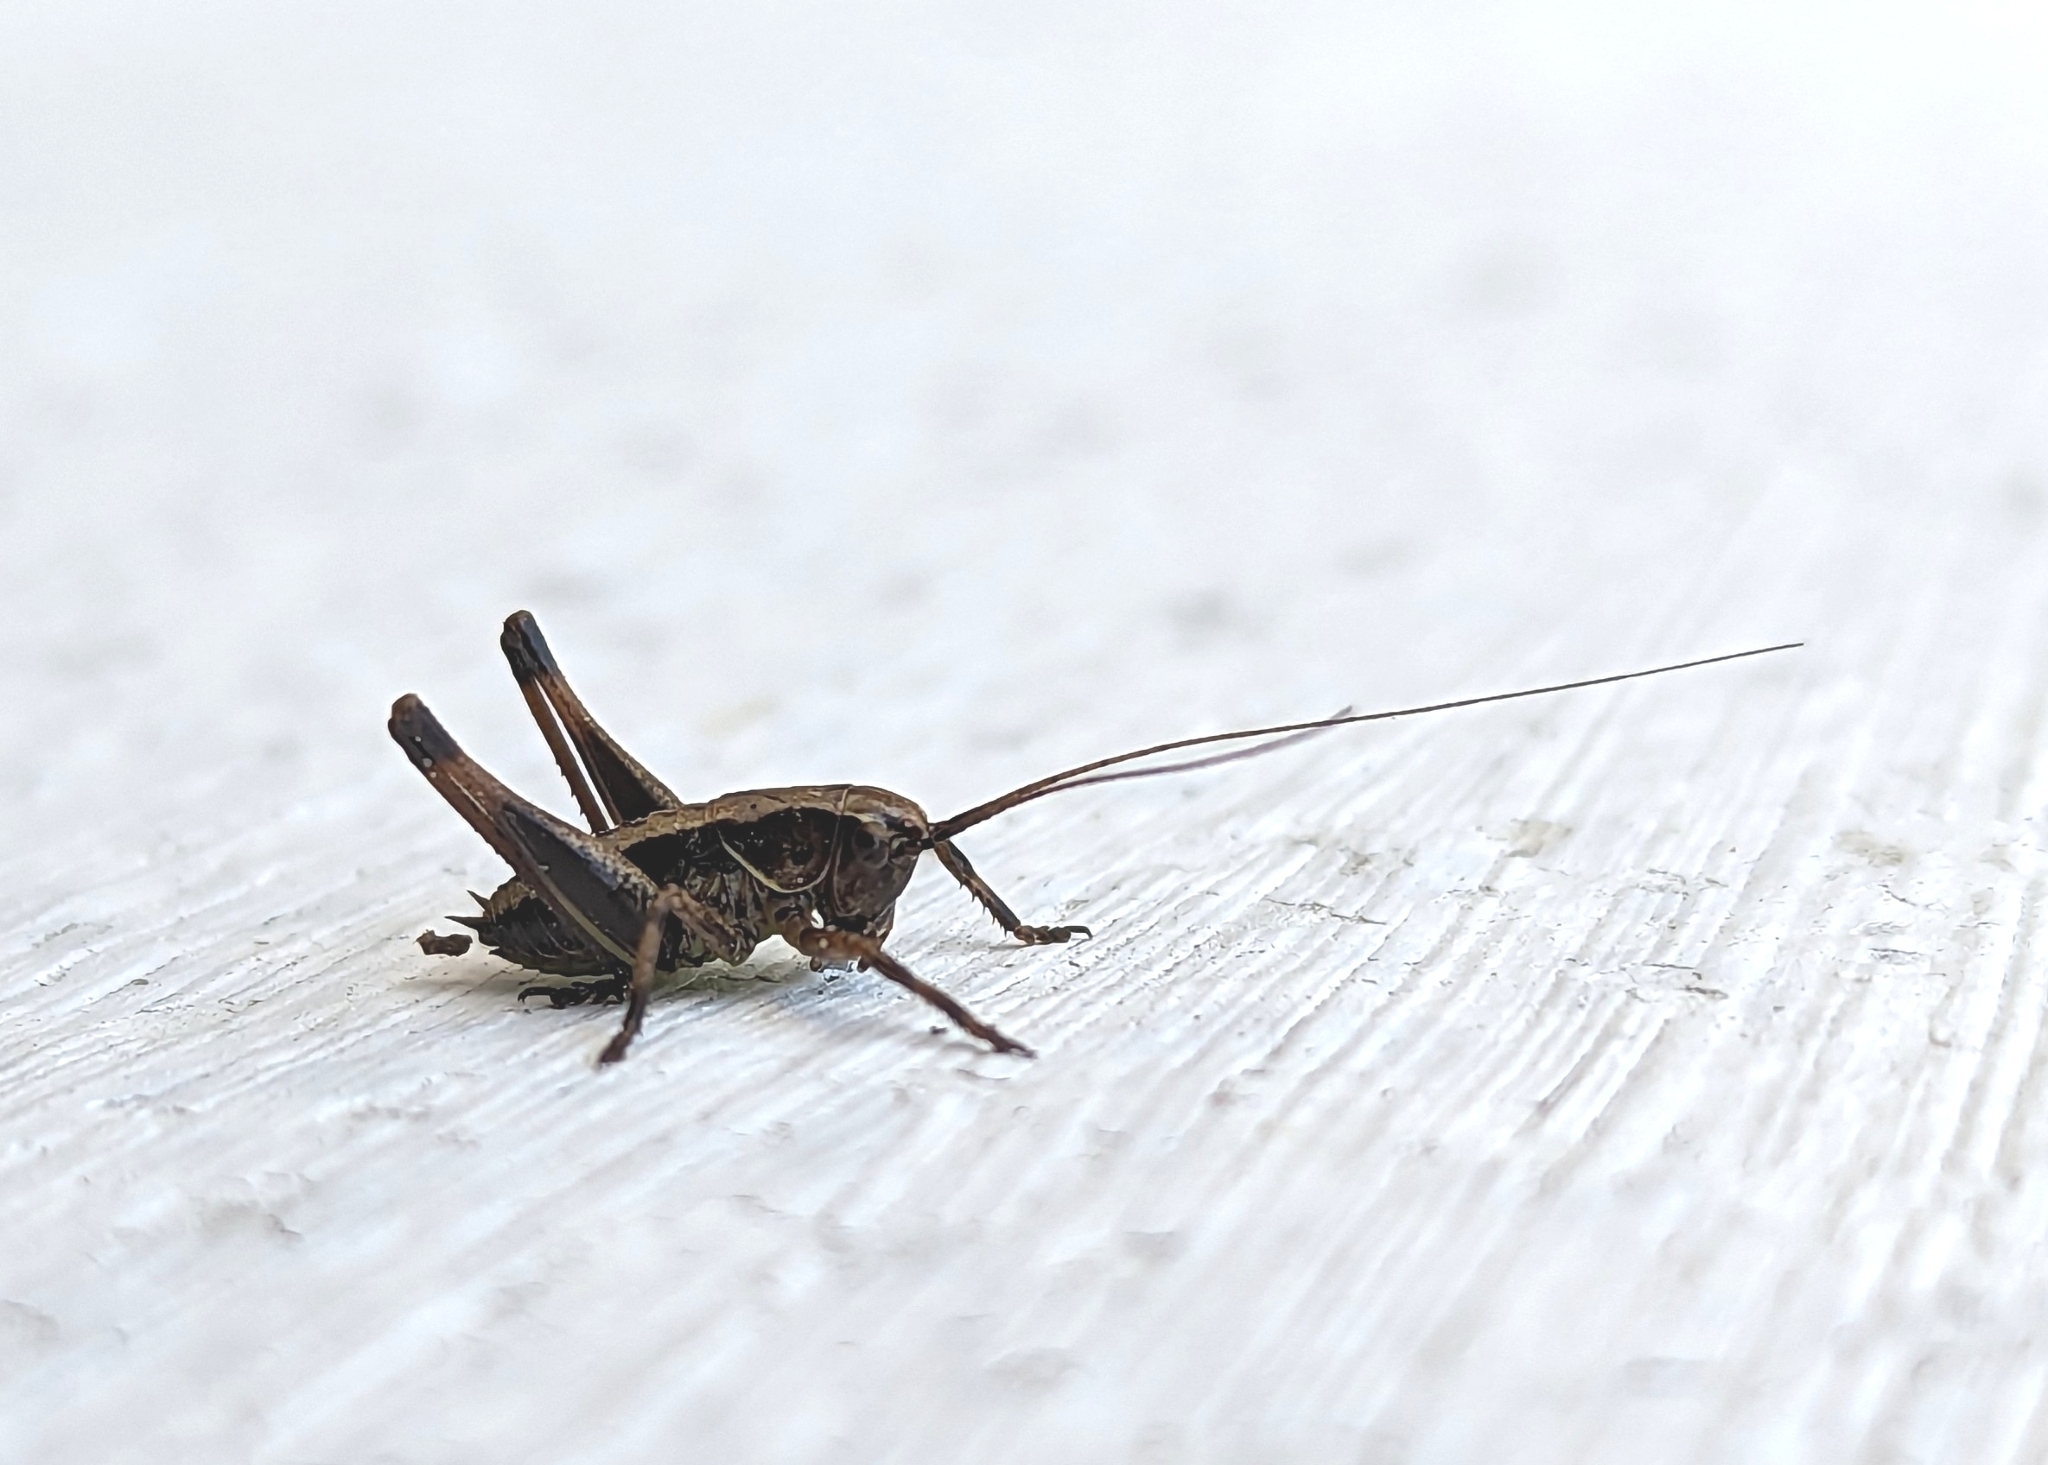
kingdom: Animalia
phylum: Arthropoda
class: Insecta
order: Orthoptera
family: Tettigoniidae
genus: Pholidoptera
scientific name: Pholidoptera griseoaptera
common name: Dark bush-cricket
